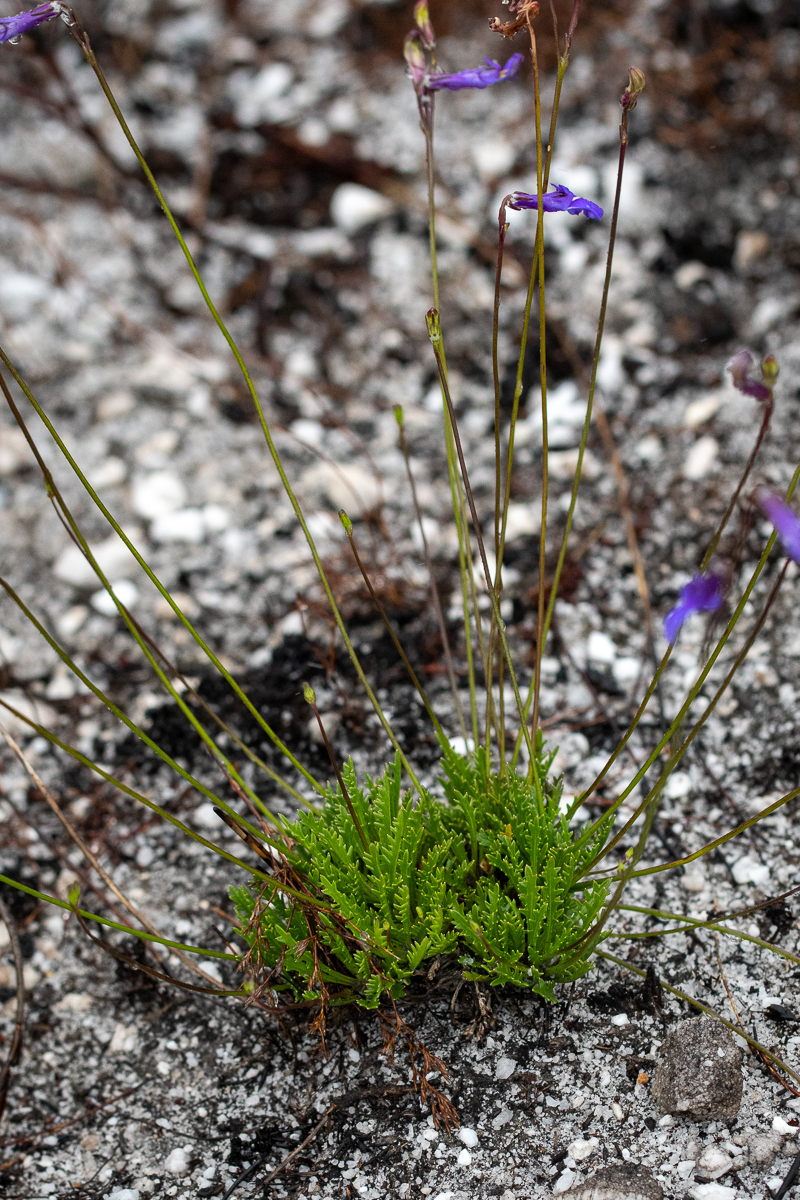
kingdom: Plantae
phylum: Tracheophyta
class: Magnoliopsida
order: Asterales
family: Campanulaceae
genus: Lobelia
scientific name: Lobelia coronopifolia
